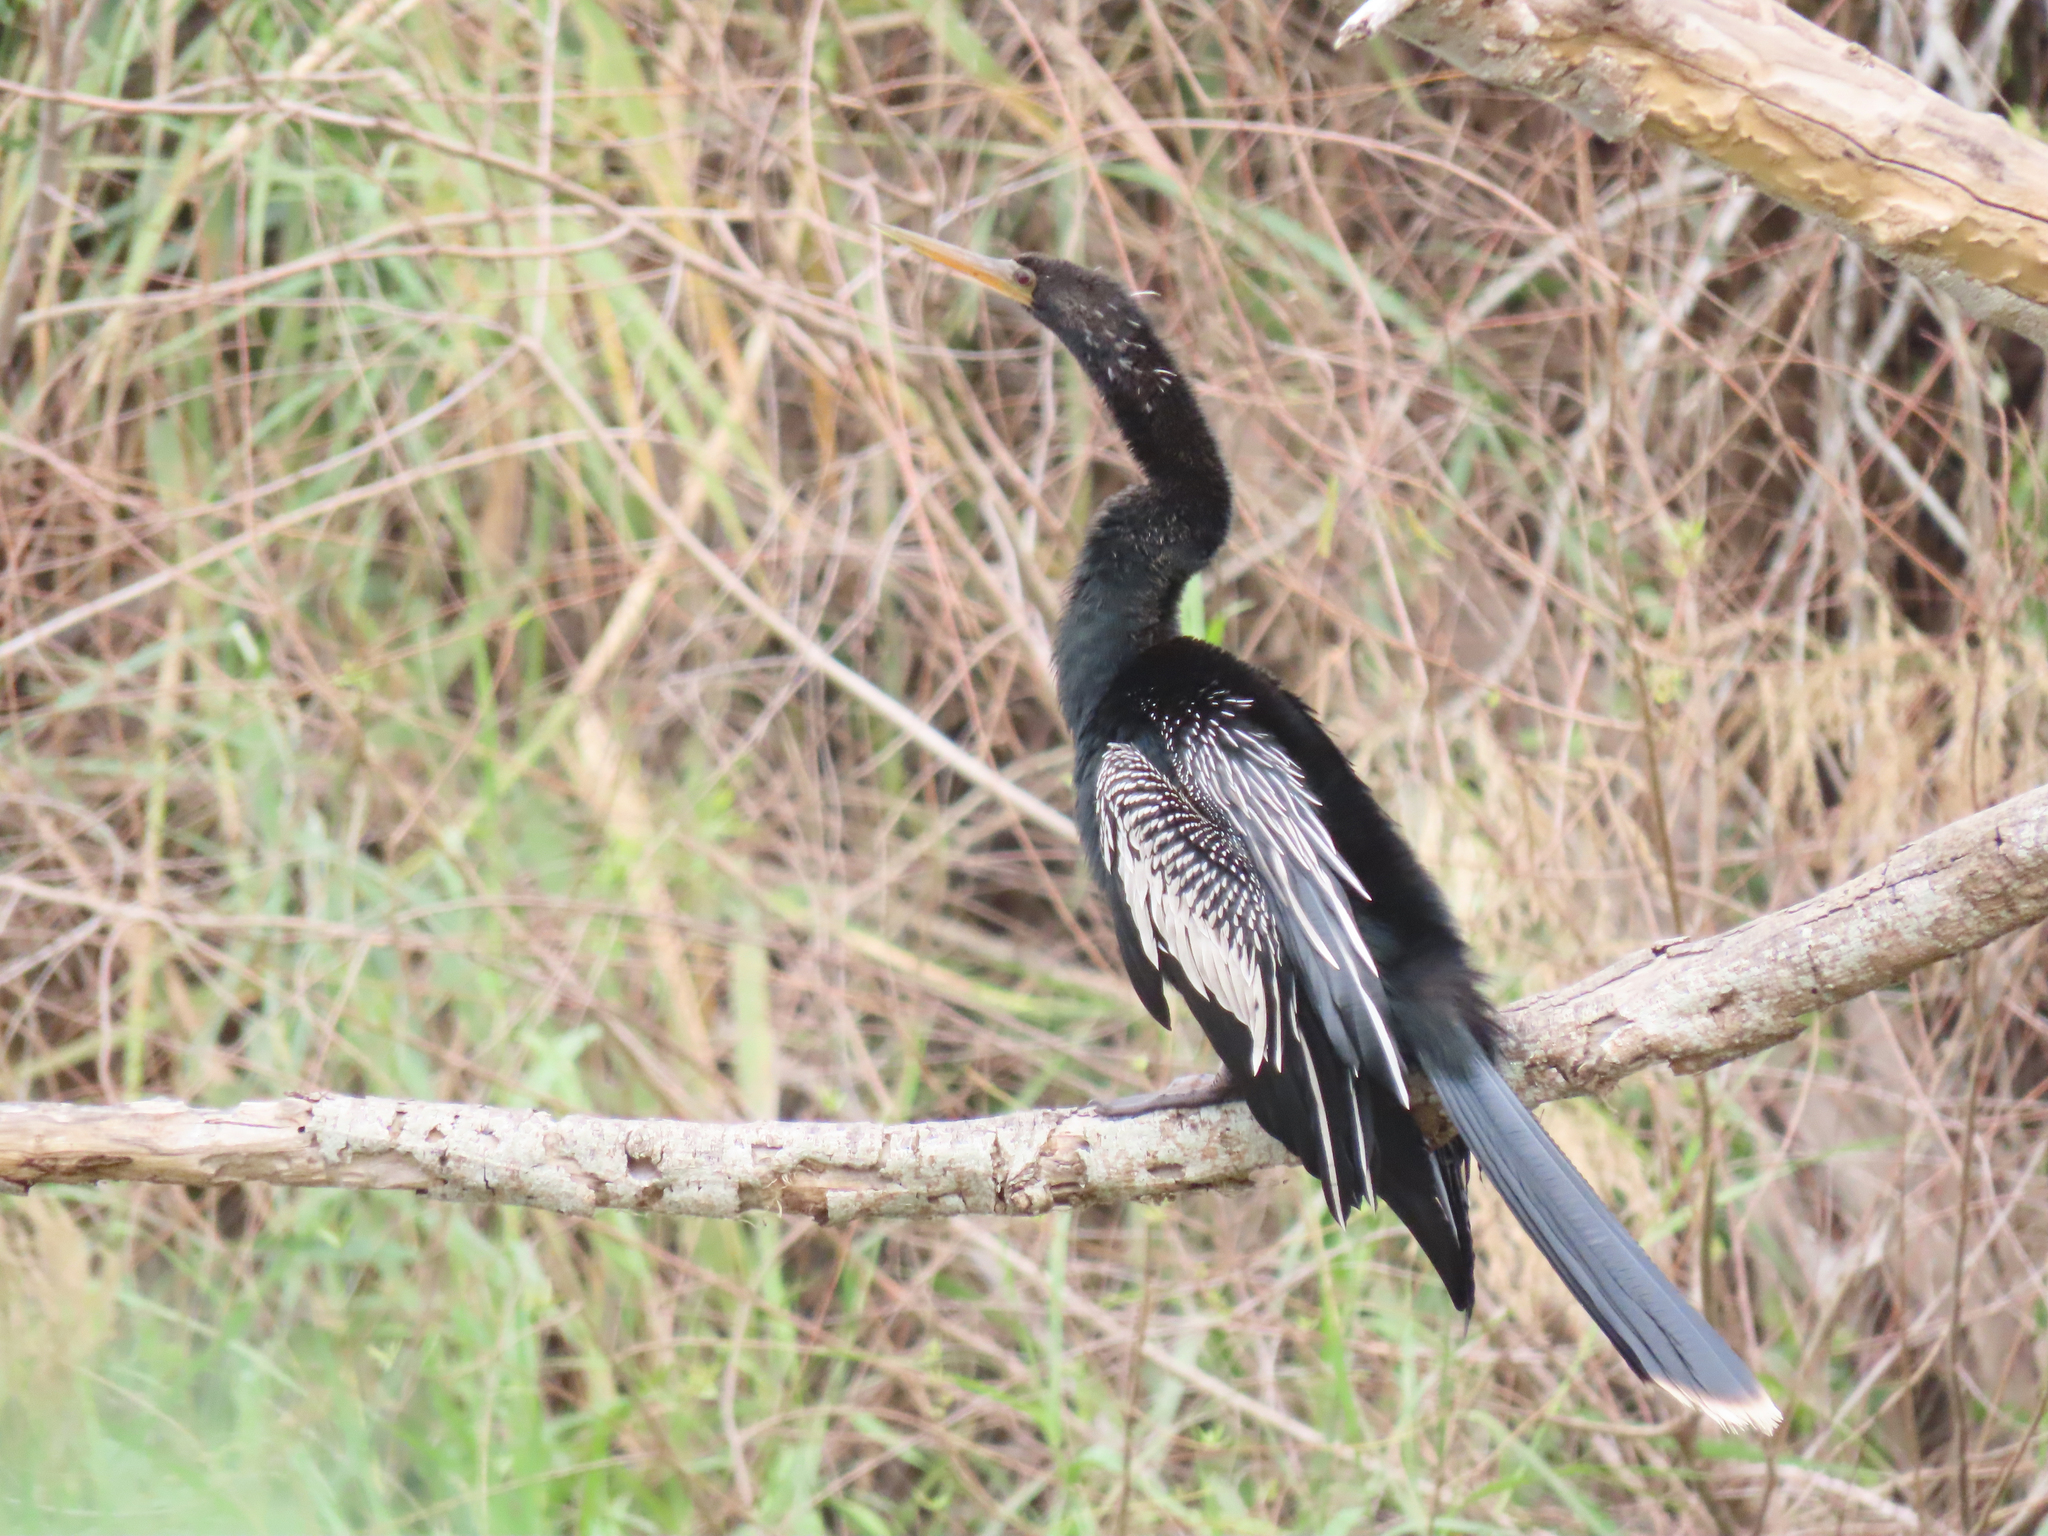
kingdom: Animalia
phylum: Chordata
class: Aves
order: Suliformes
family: Anhingidae
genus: Anhinga
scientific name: Anhinga anhinga
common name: Anhinga
